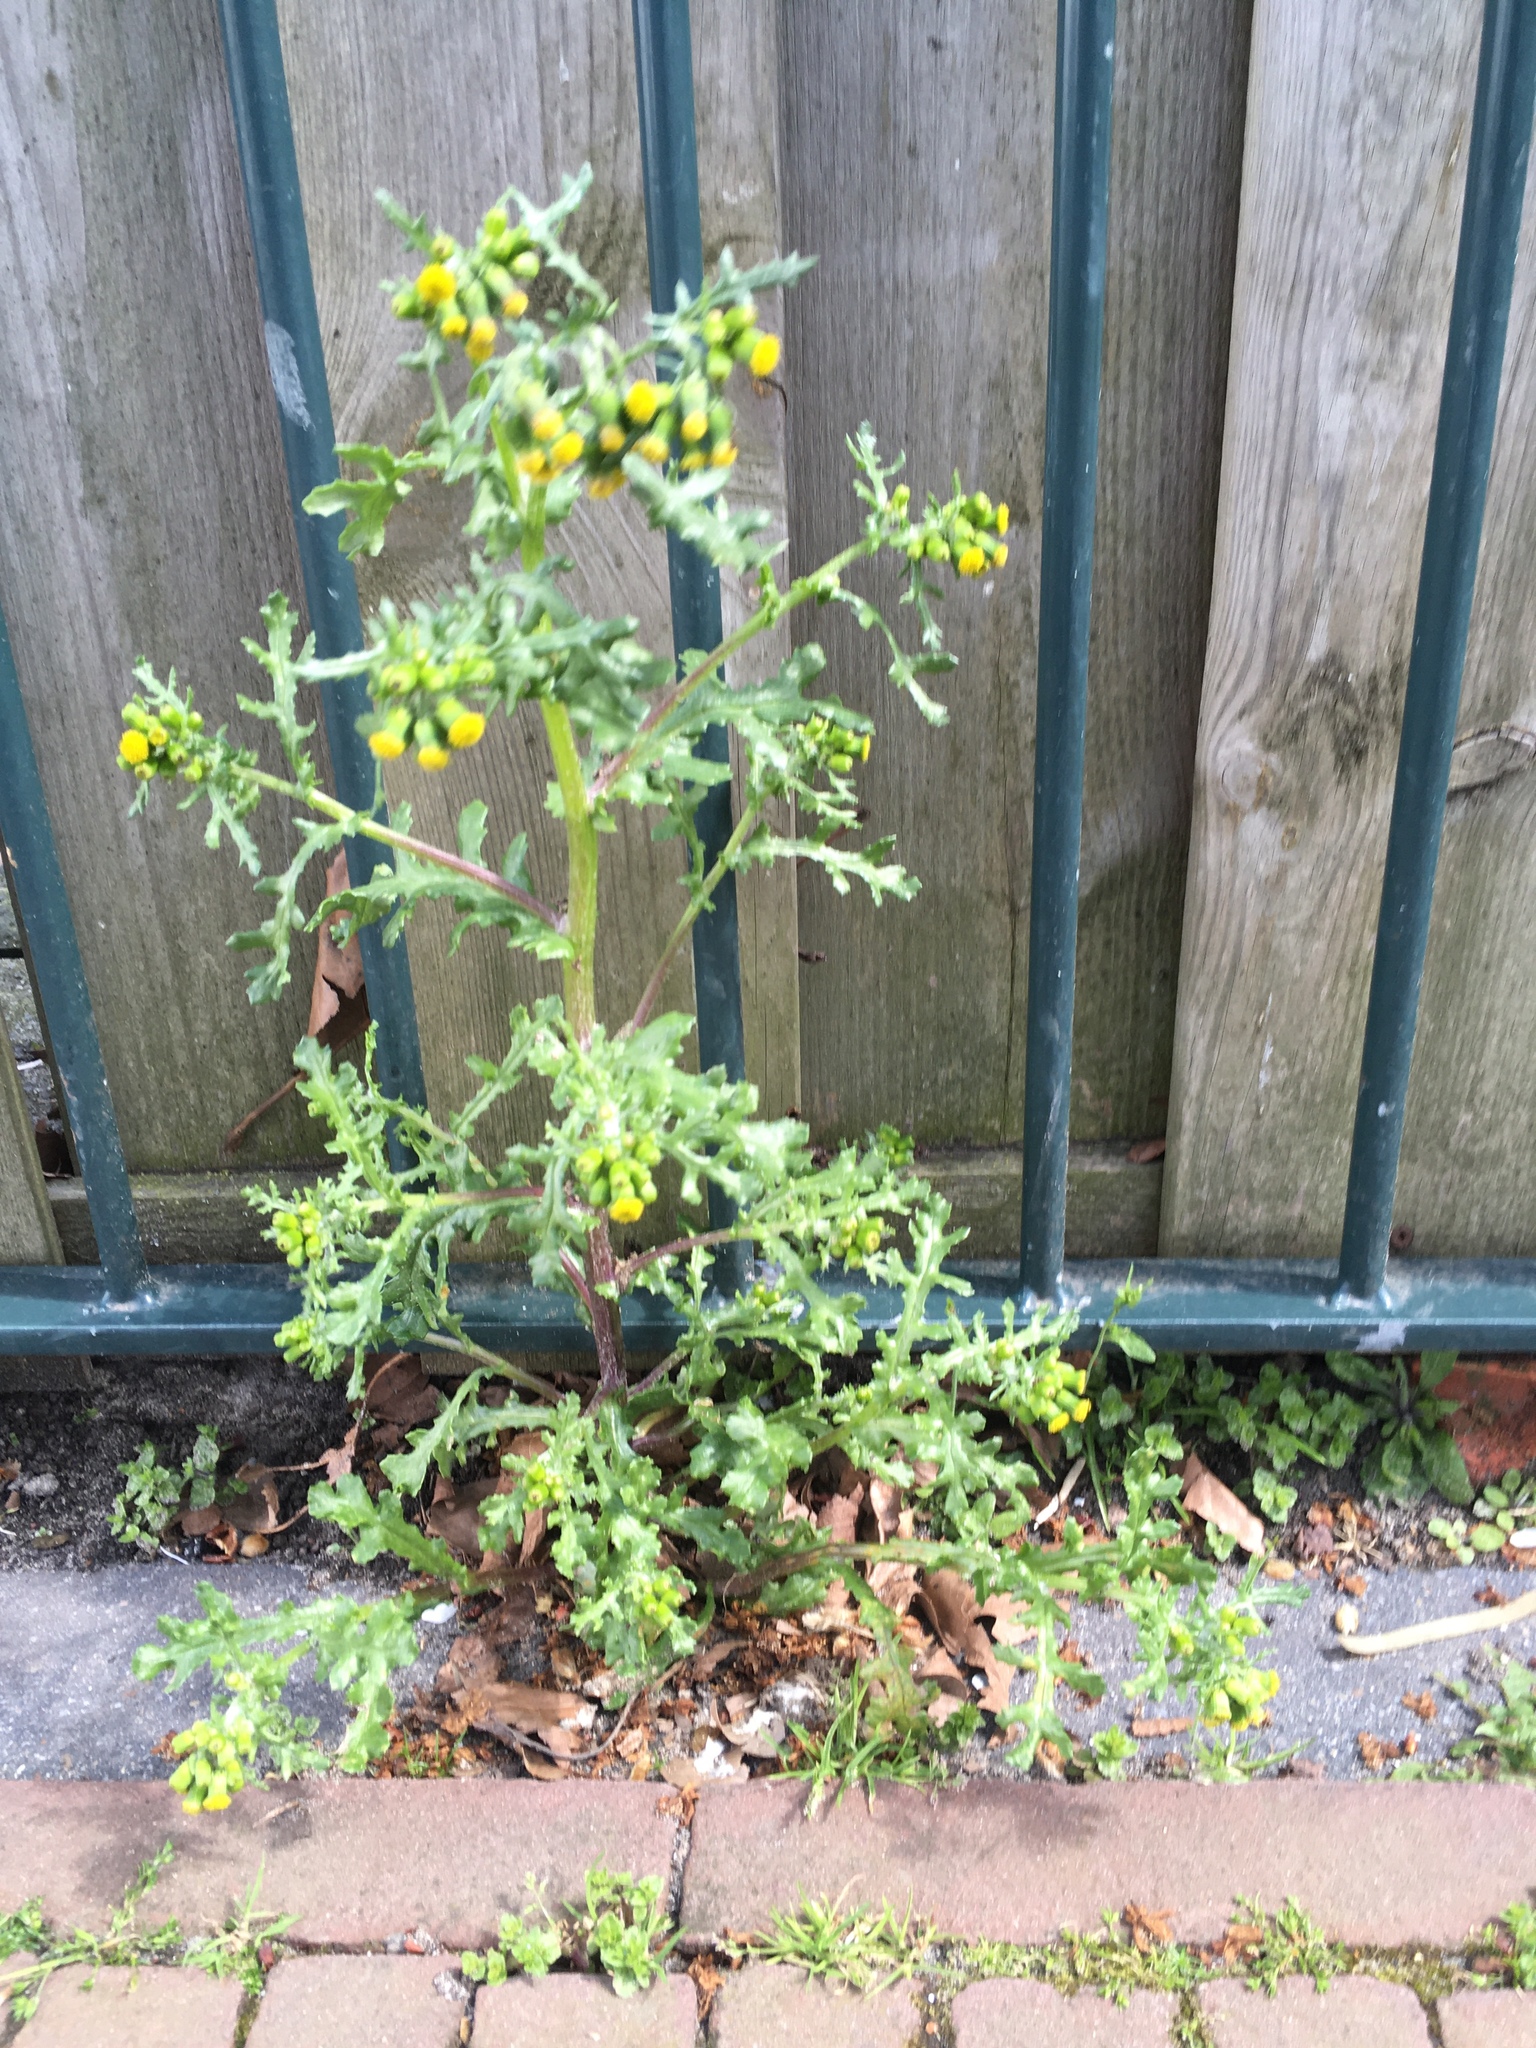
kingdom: Plantae
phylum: Tracheophyta
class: Magnoliopsida
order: Asterales
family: Asteraceae
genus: Senecio
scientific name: Senecio vulgaris
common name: Old-man-in-the-spring
